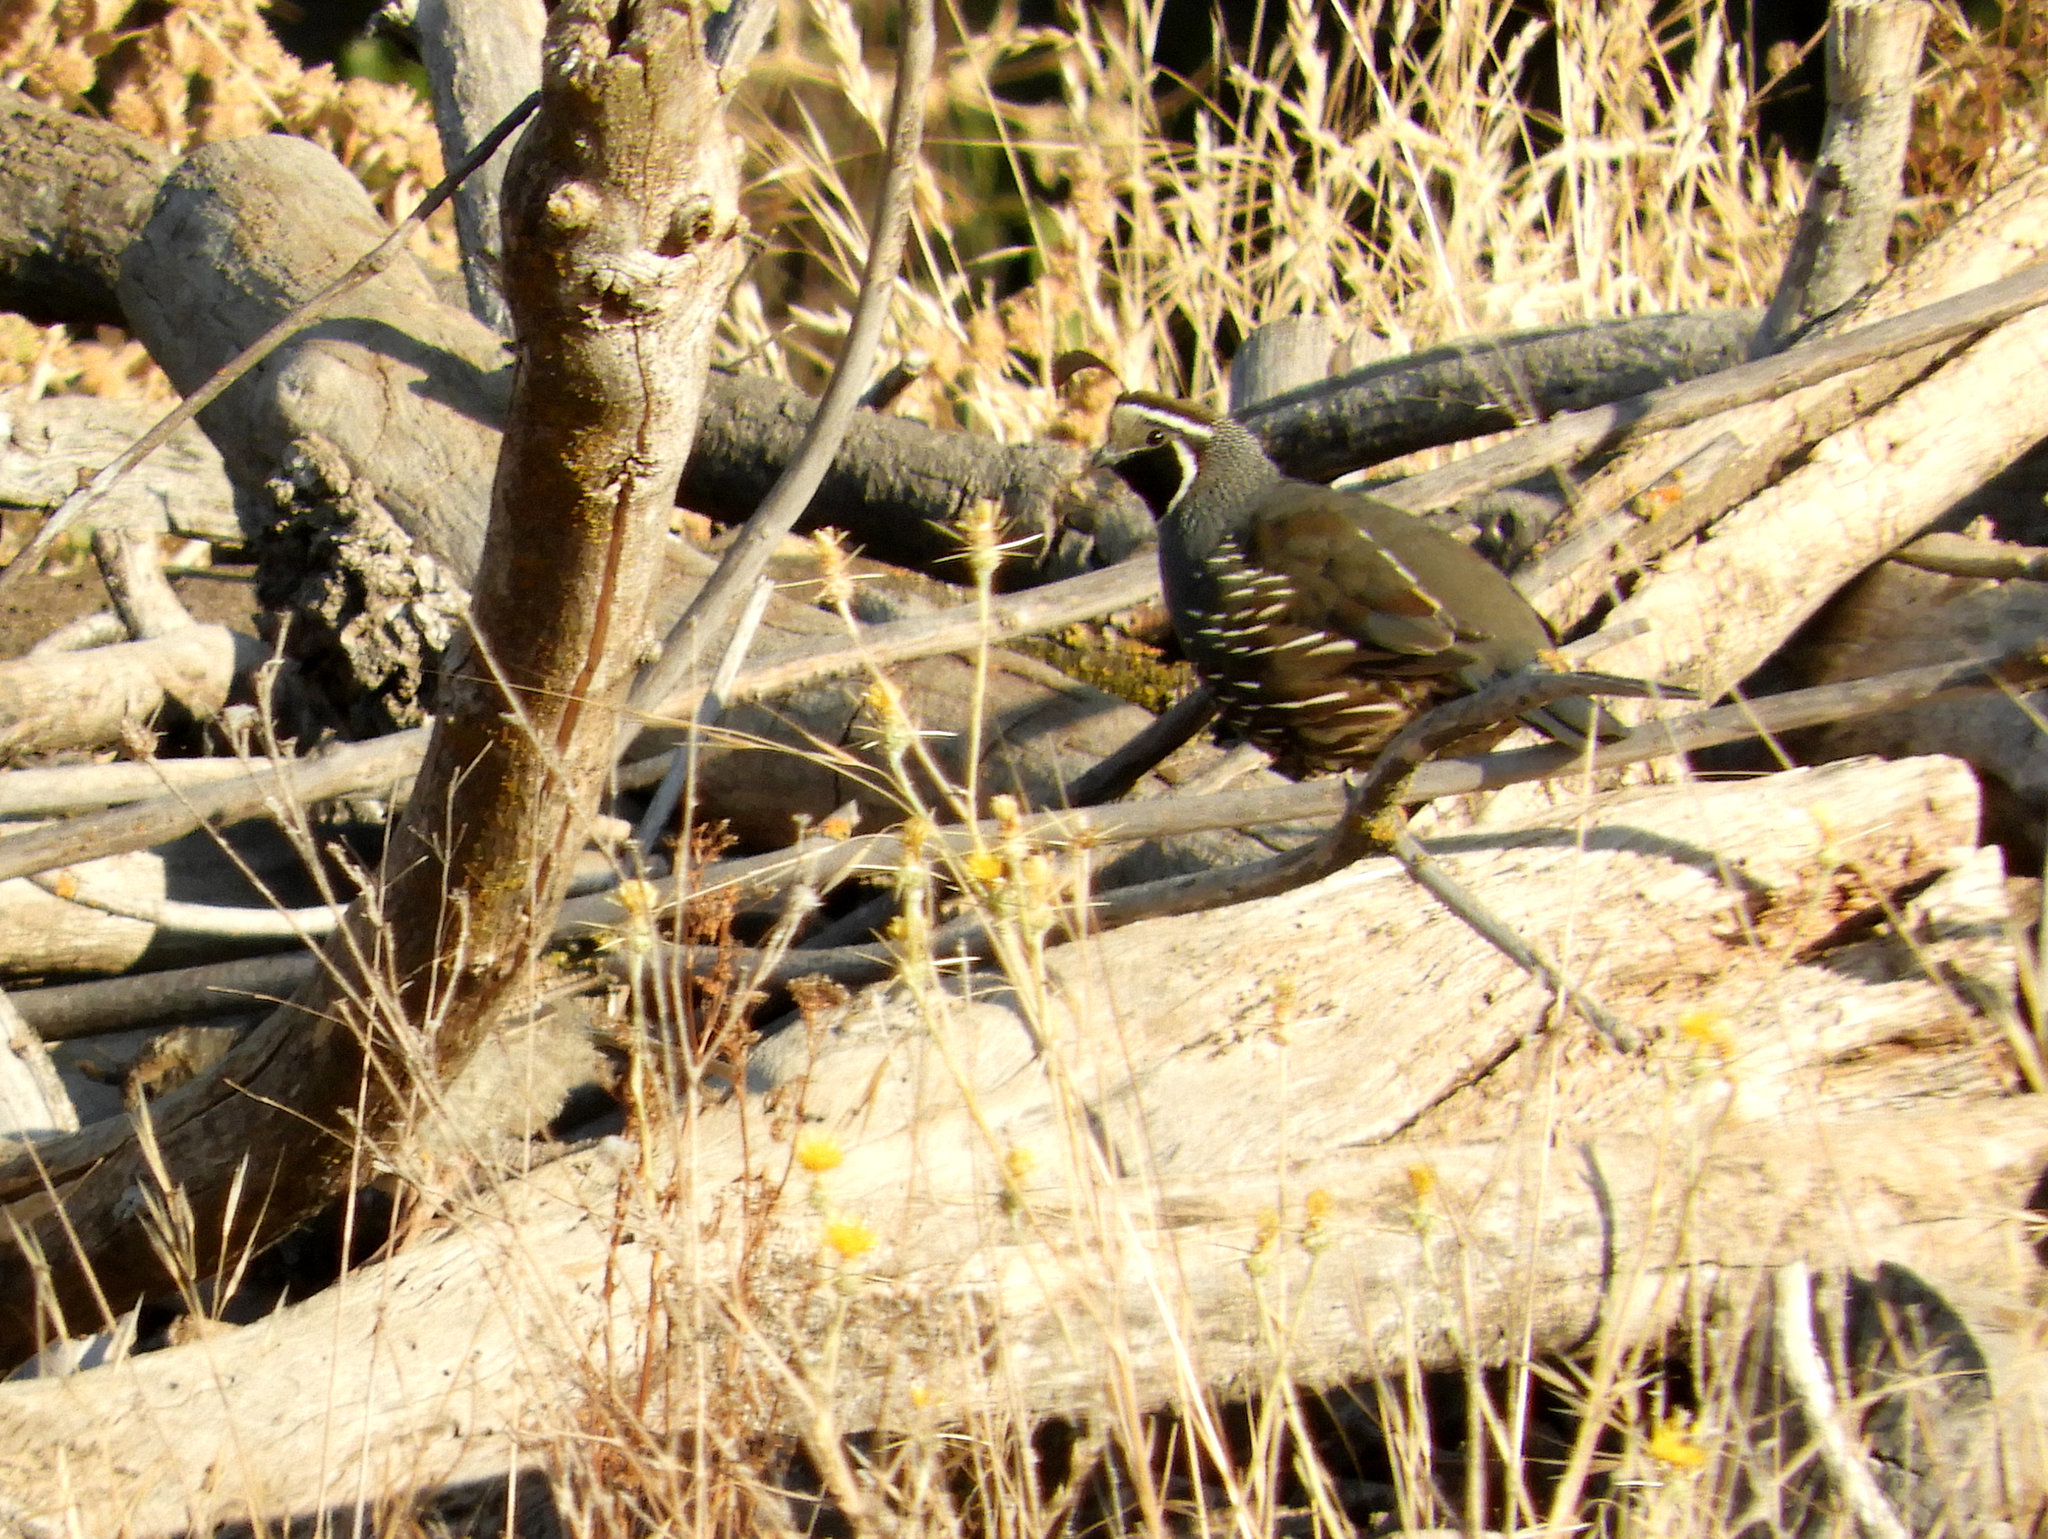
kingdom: Animalia
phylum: Chordata
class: Aves
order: Galliformes
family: Odontophoridae
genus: Callipepla
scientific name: Callipepla californica
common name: California quail
